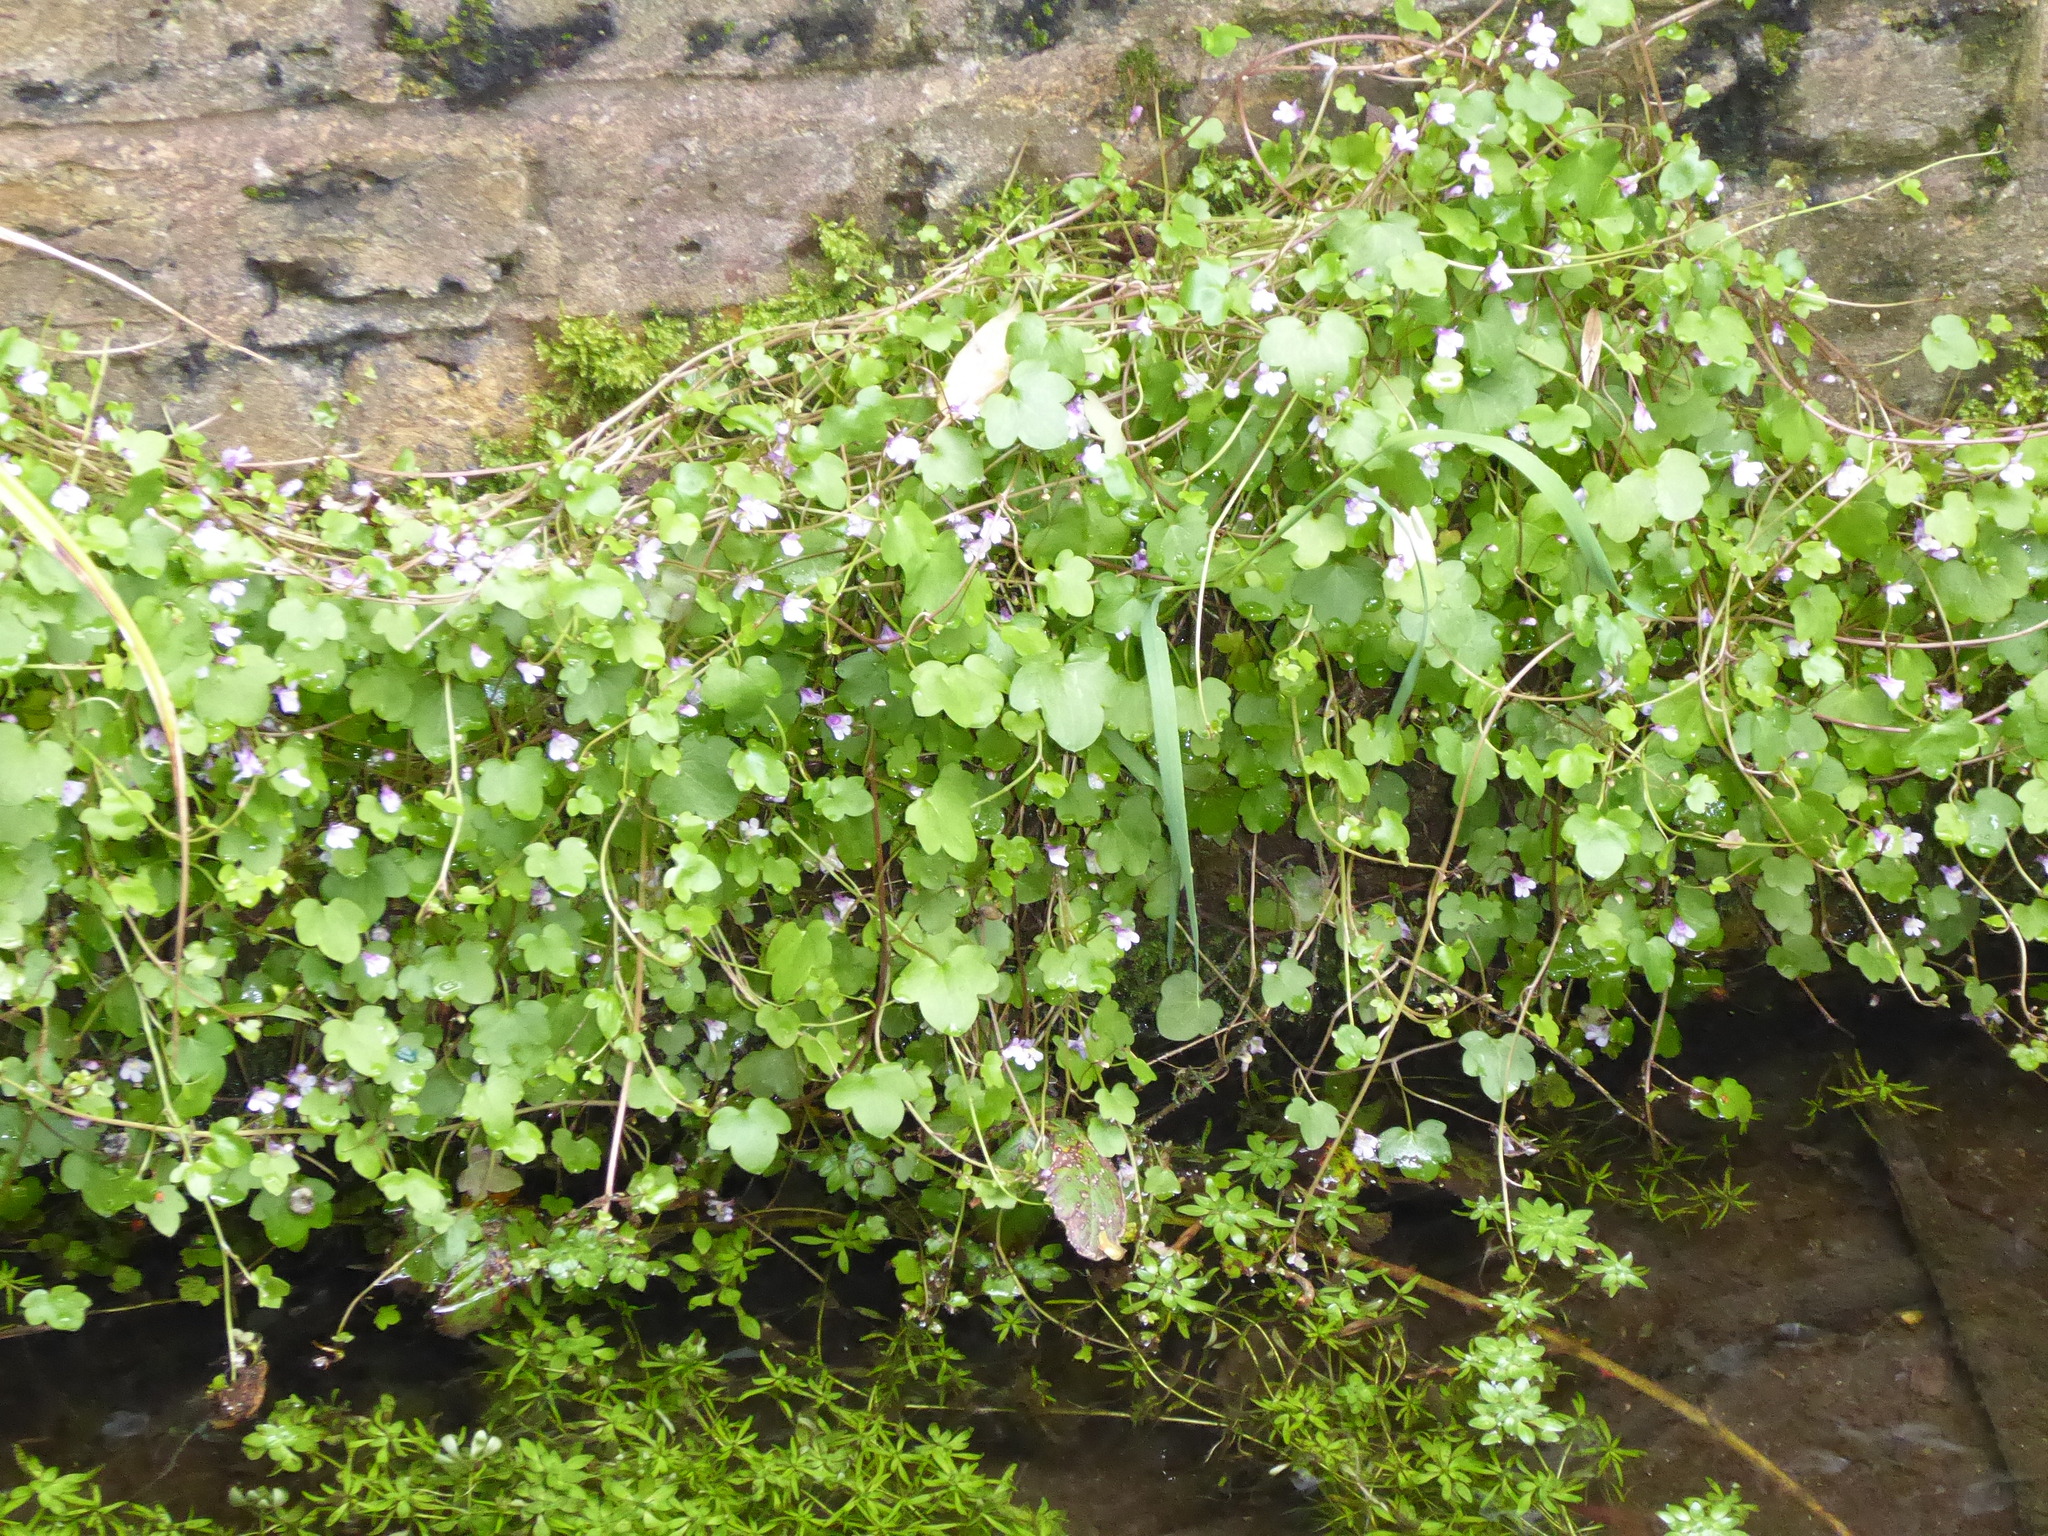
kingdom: Plantae
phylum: Tracheophyta
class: Magnoliopsida
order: Lamiales
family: Plantaginaceae
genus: Cymbalaria
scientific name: Cymbalaria muralis
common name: Ivy-leaved toadflax
